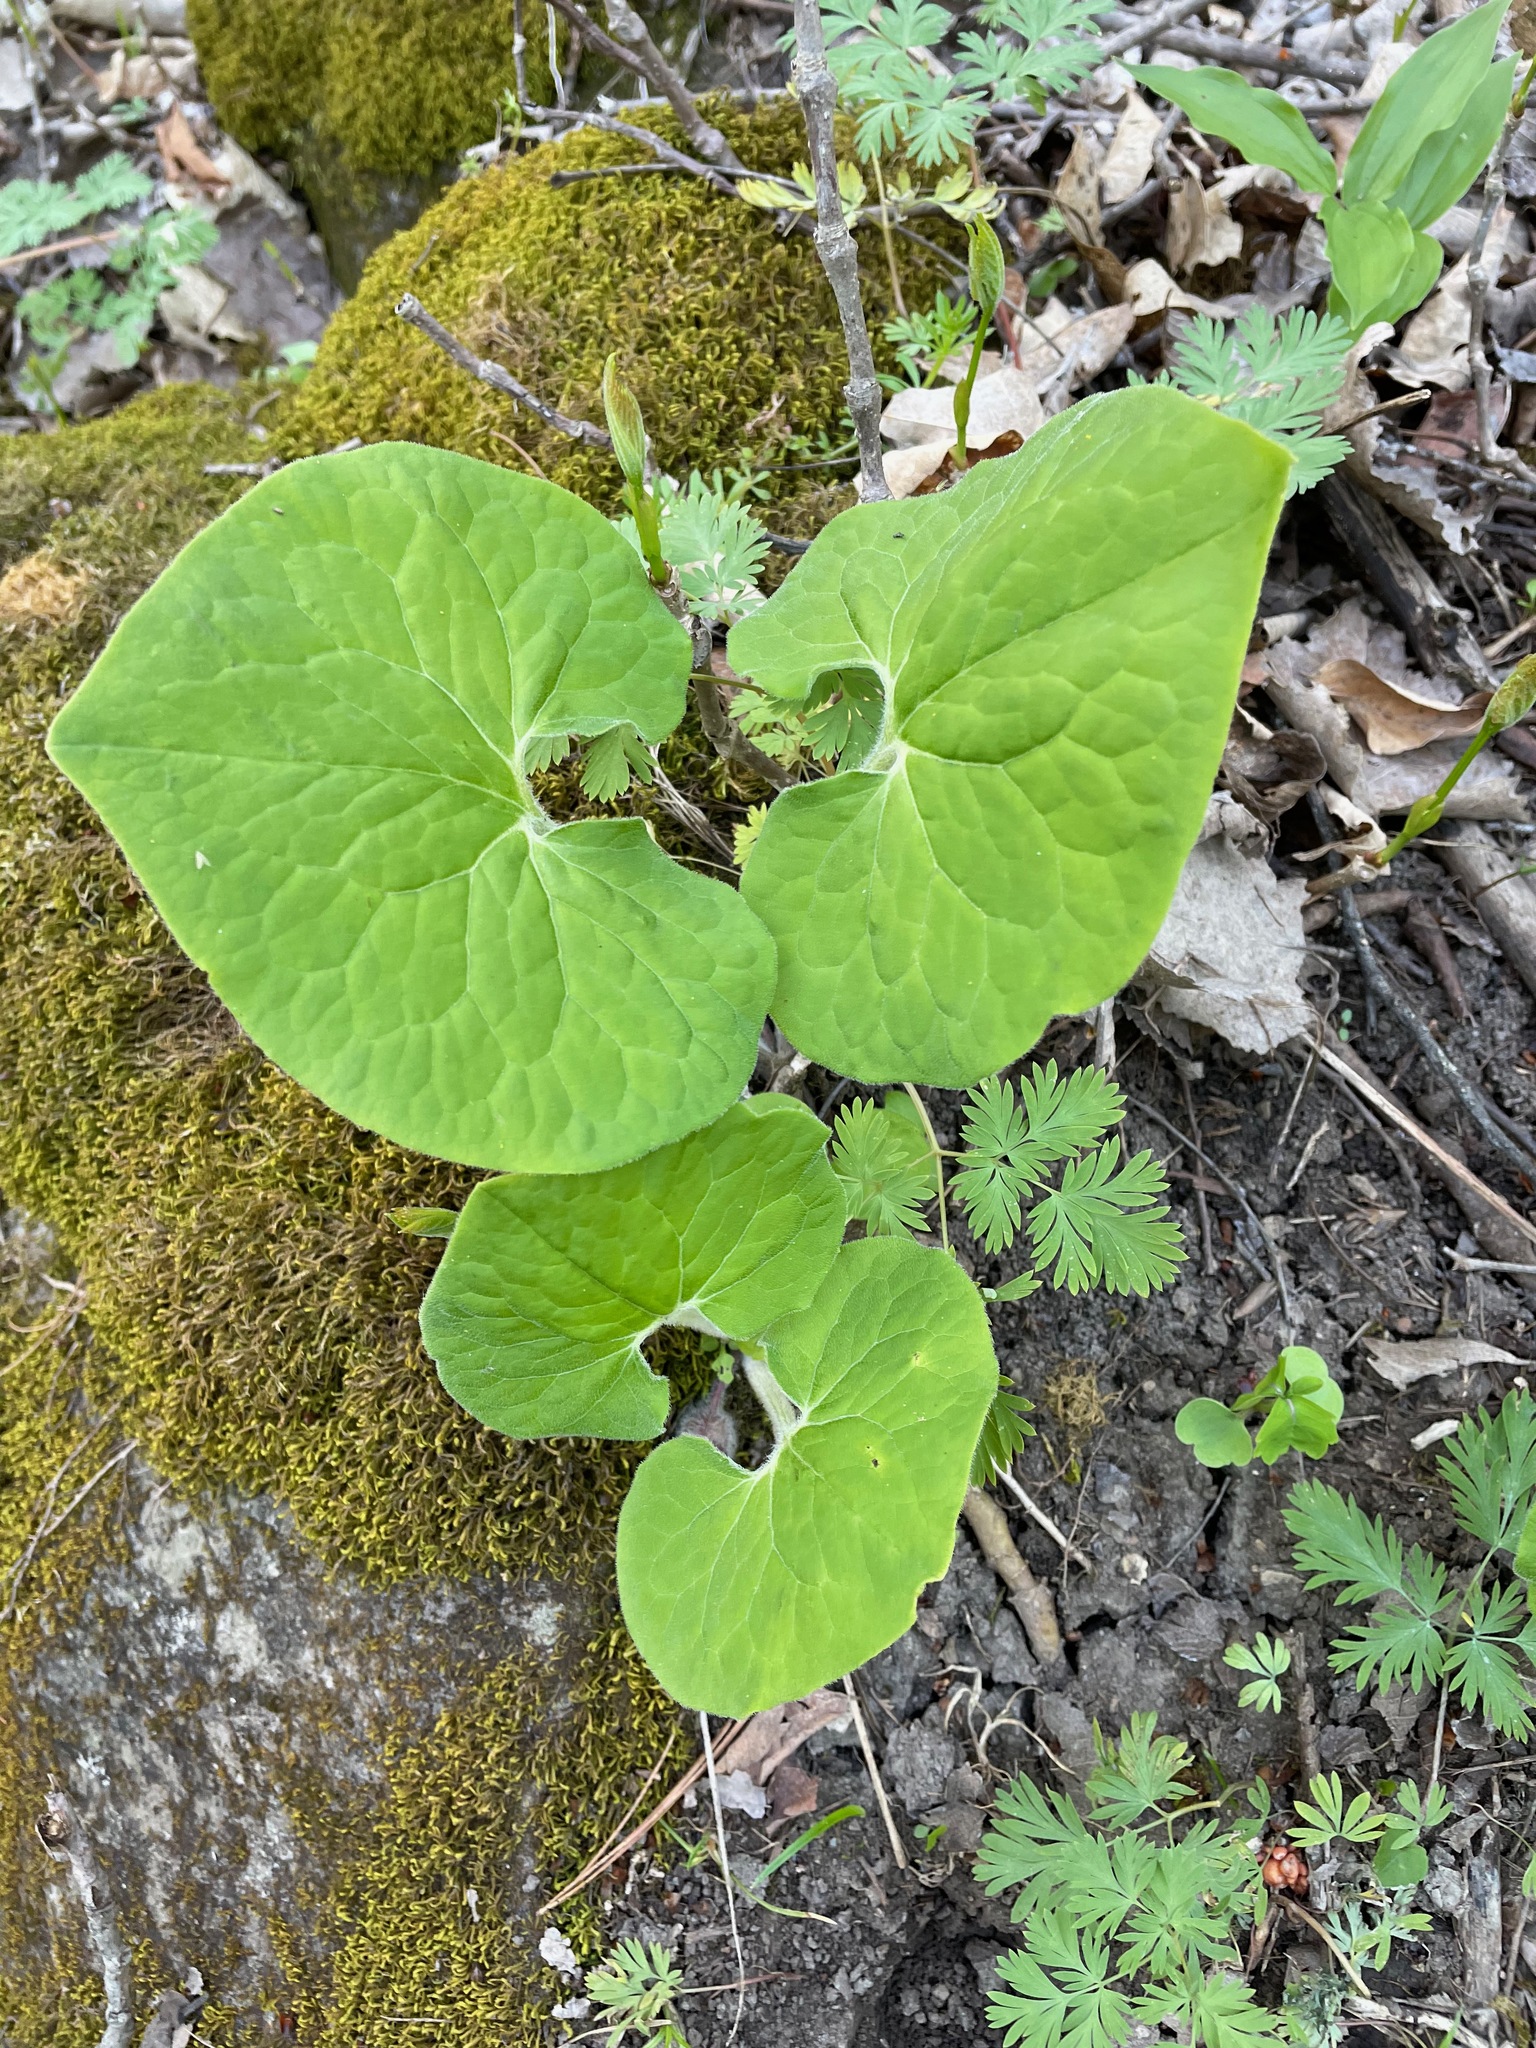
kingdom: Plantae
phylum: Tracheophyta
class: Magnoliopsida
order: Piperales
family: Aristolochiaceae
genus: Asarum
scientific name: Asarum canadense
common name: Wild ginger
